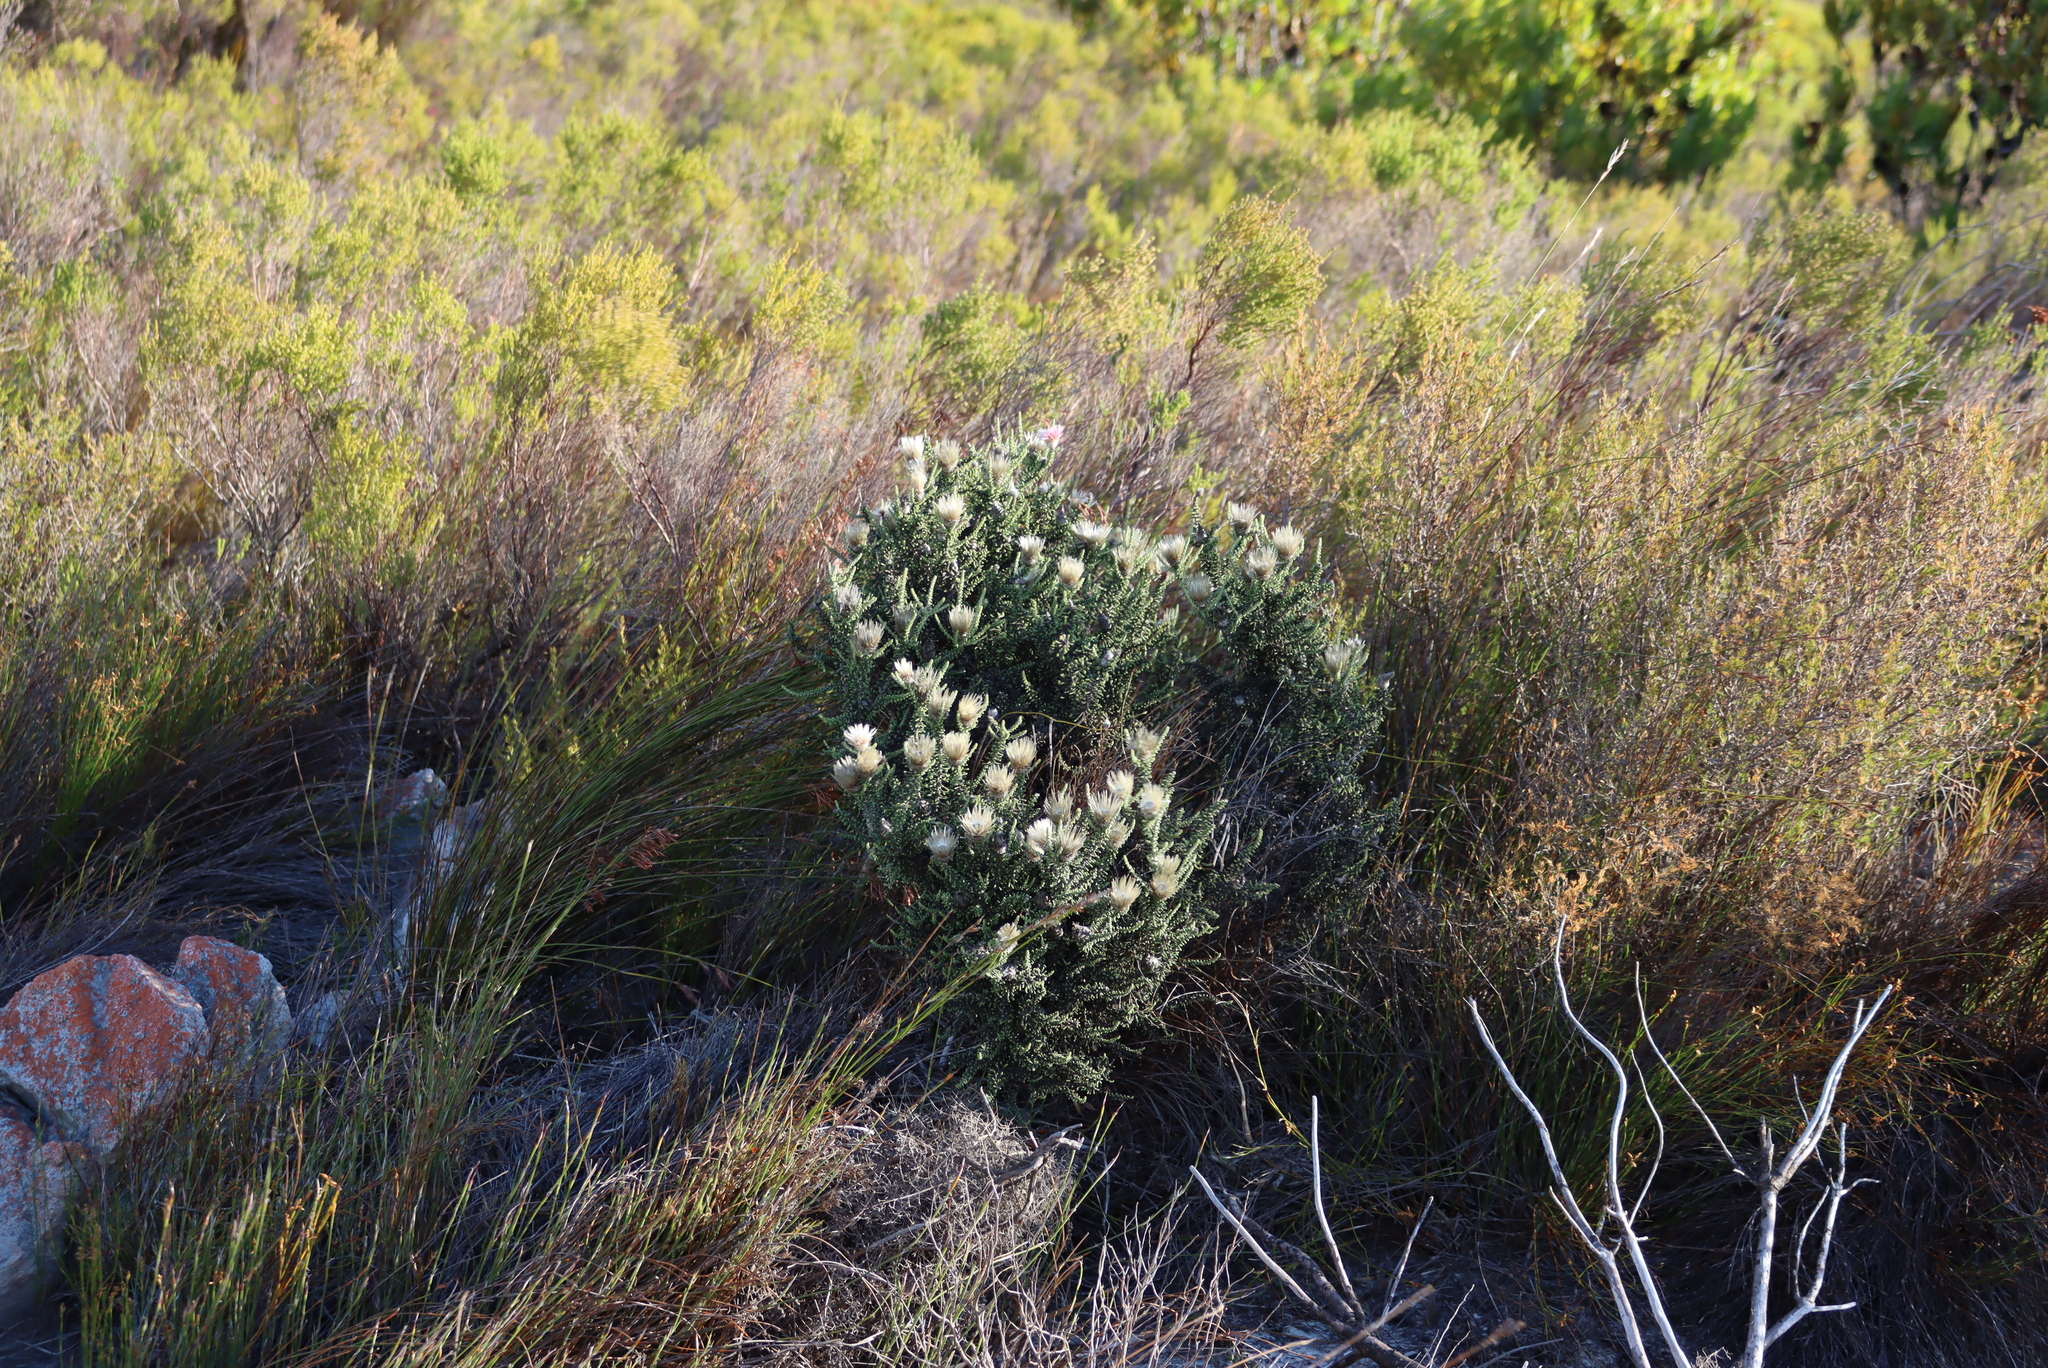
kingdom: Plantae
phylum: Tracheophyta
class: Magnoliopsida
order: Asterales
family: Asteraceae
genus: Phaenocoma
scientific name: Phaenocoma prolifera
